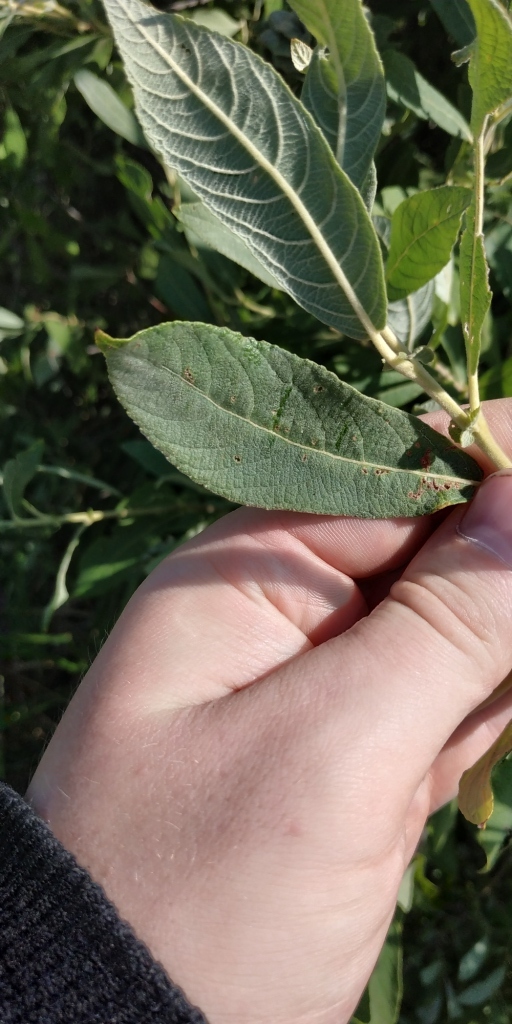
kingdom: Plantae
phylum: Tracheophyta
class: Magnoliopsida
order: Malpighiales
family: Salicaceae
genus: Salix
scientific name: Salix cinerea
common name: Common sallow
